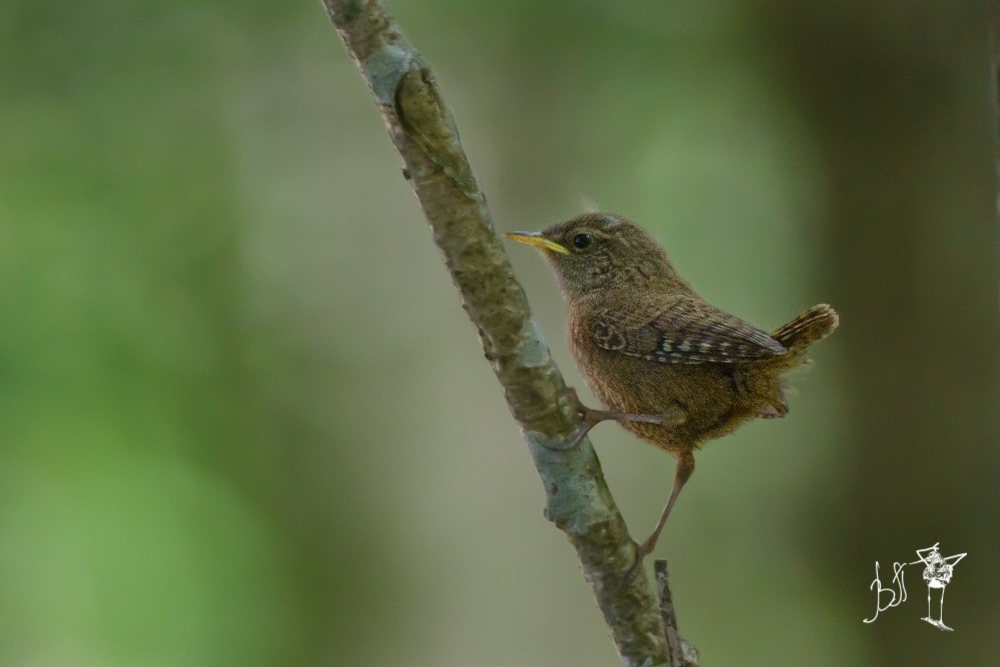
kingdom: Animalia
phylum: Chordata
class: Aves
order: Passeriformes
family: Troglodytidae
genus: Troglodytes
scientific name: Troglodytes troglodytes
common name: Eurasian wren
